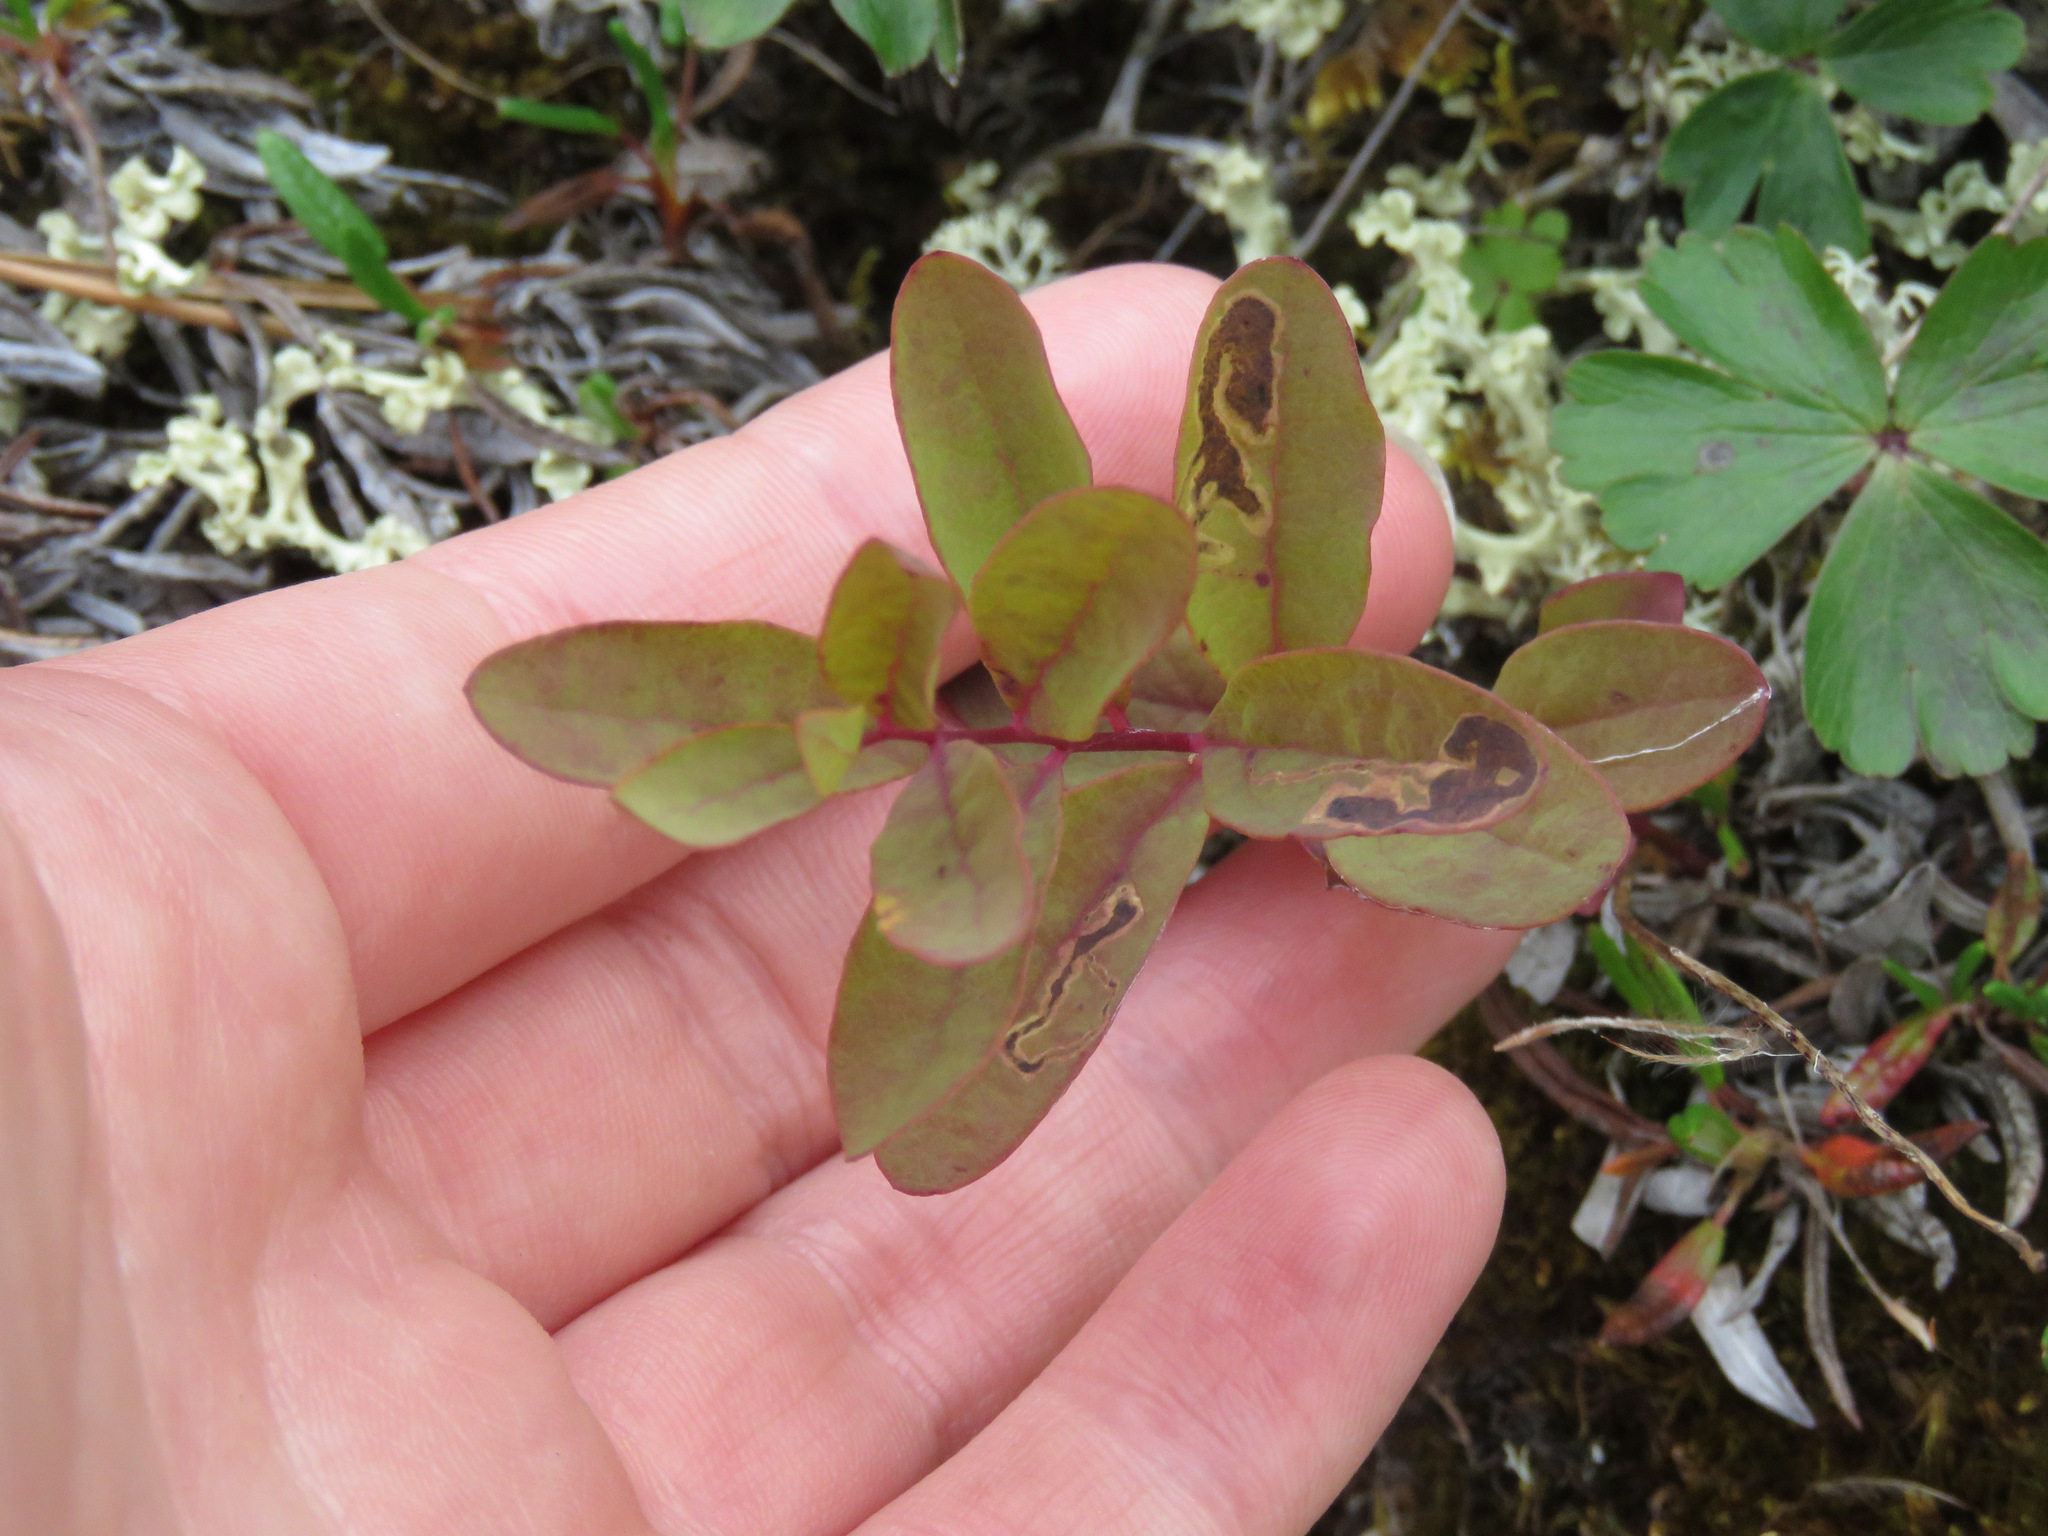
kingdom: Plantae
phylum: Tracheophyta
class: Magnoliopsida
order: Santalales
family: Comandraceae
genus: Geocaulon
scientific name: Geocaulon lividum
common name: Earthberry
